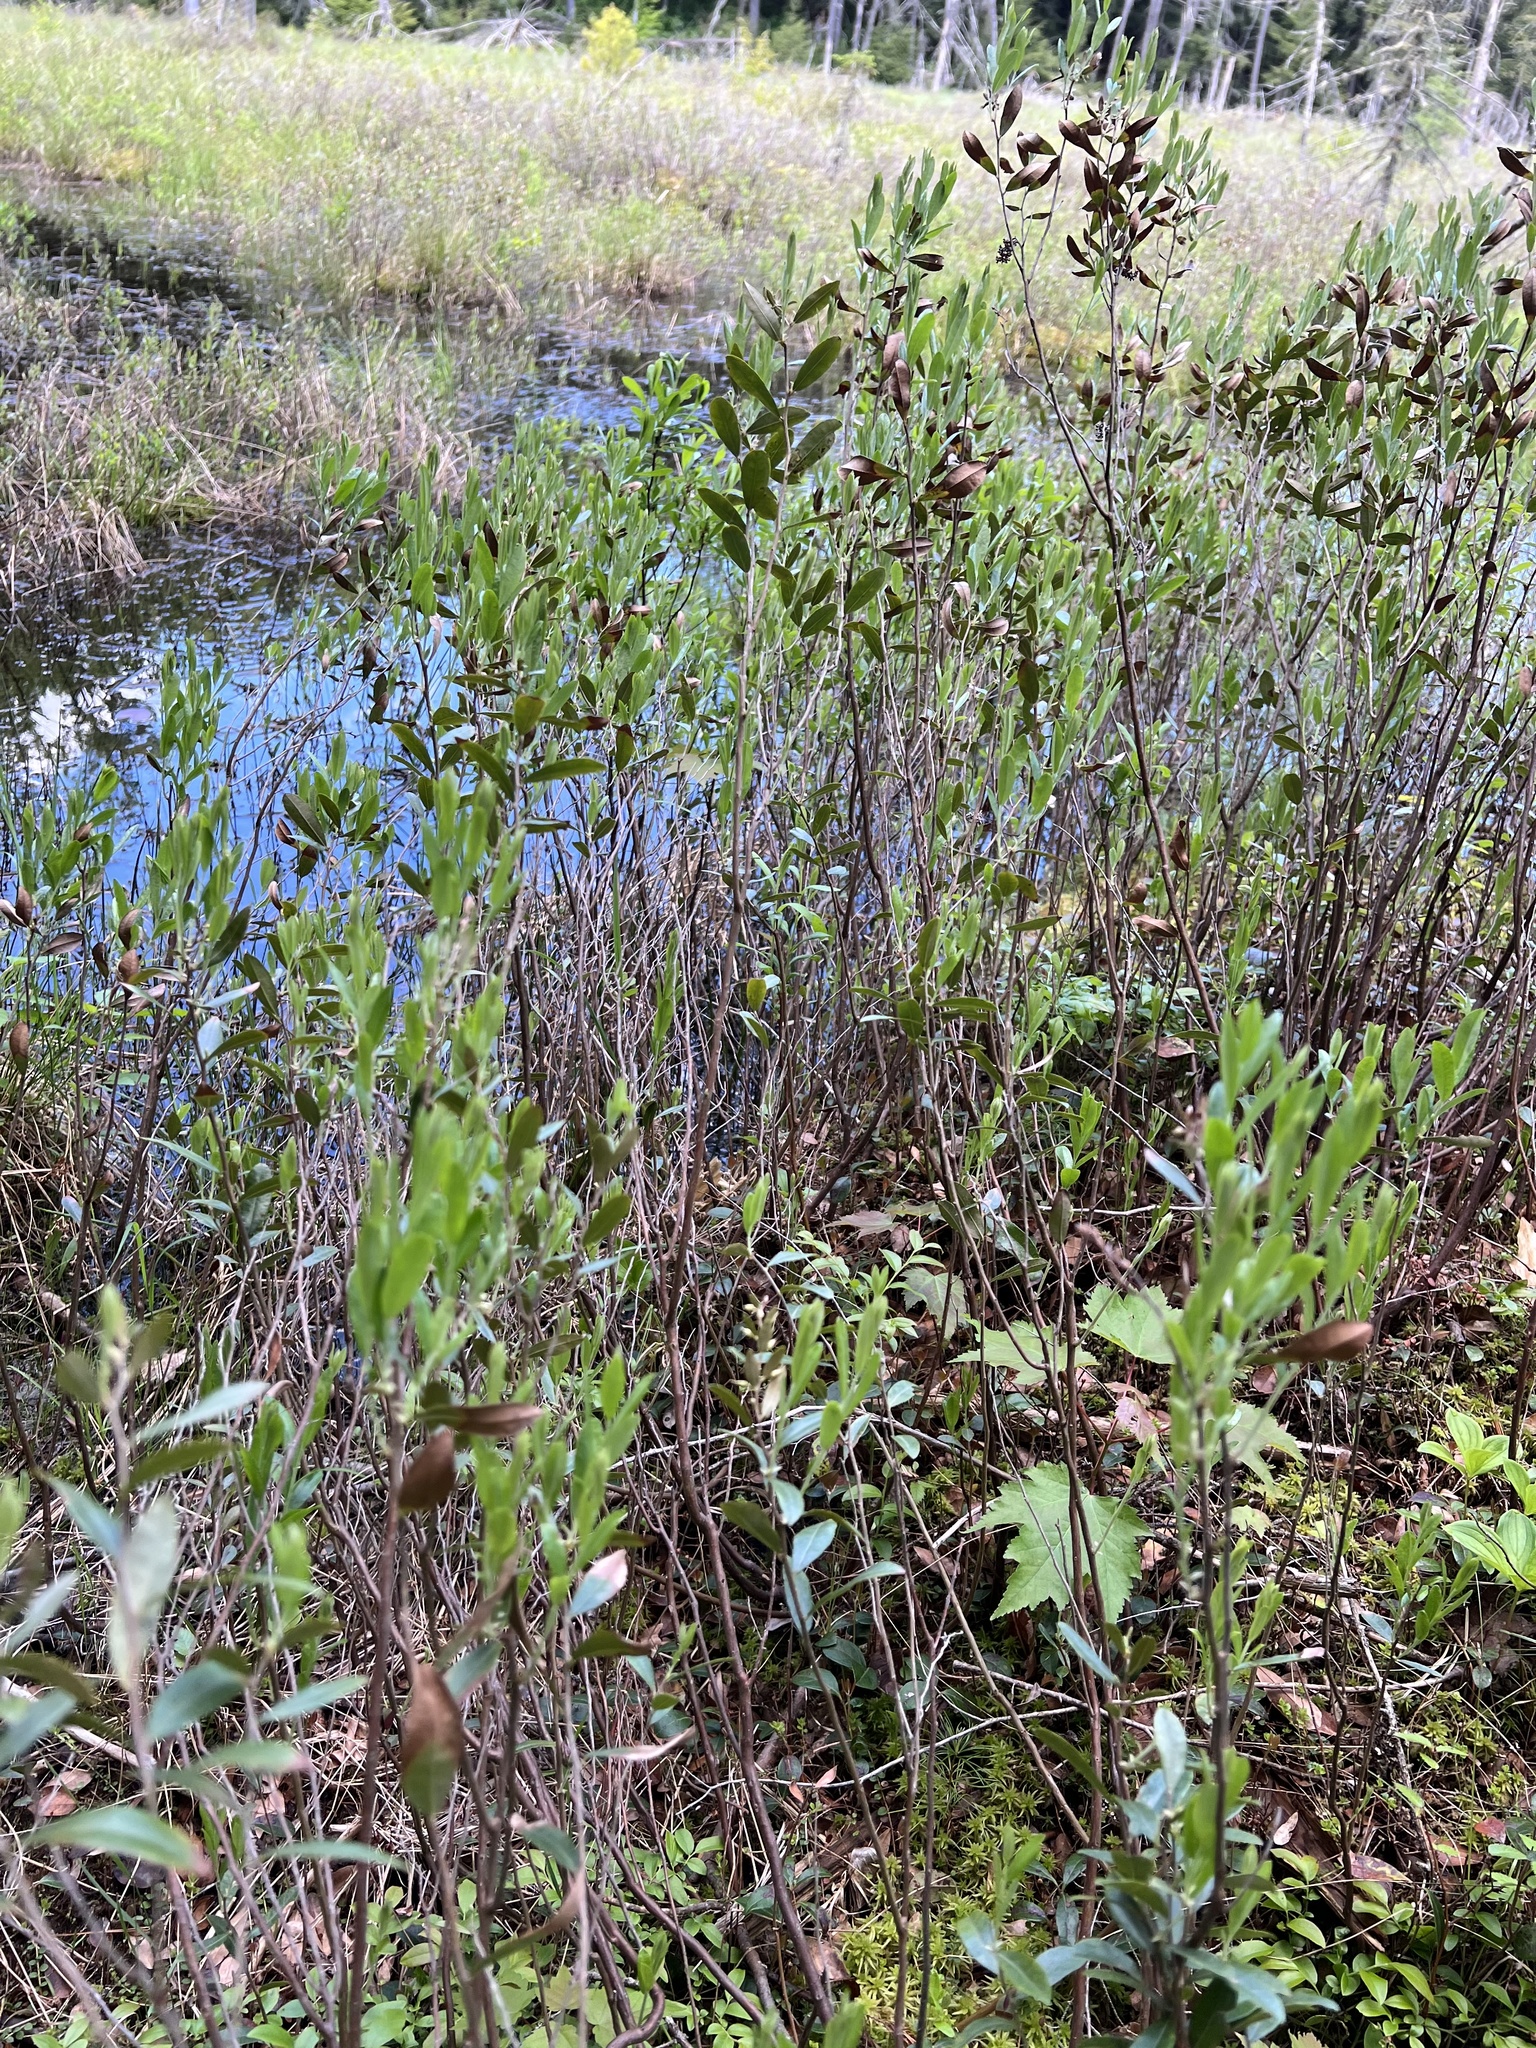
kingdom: Plantae
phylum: Tracheophyta
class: Magnoliopsida
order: Ericales
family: Ericaceae
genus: Chamaedaphne
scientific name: Chamaedaphne calyculata
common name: Leatherleaf
